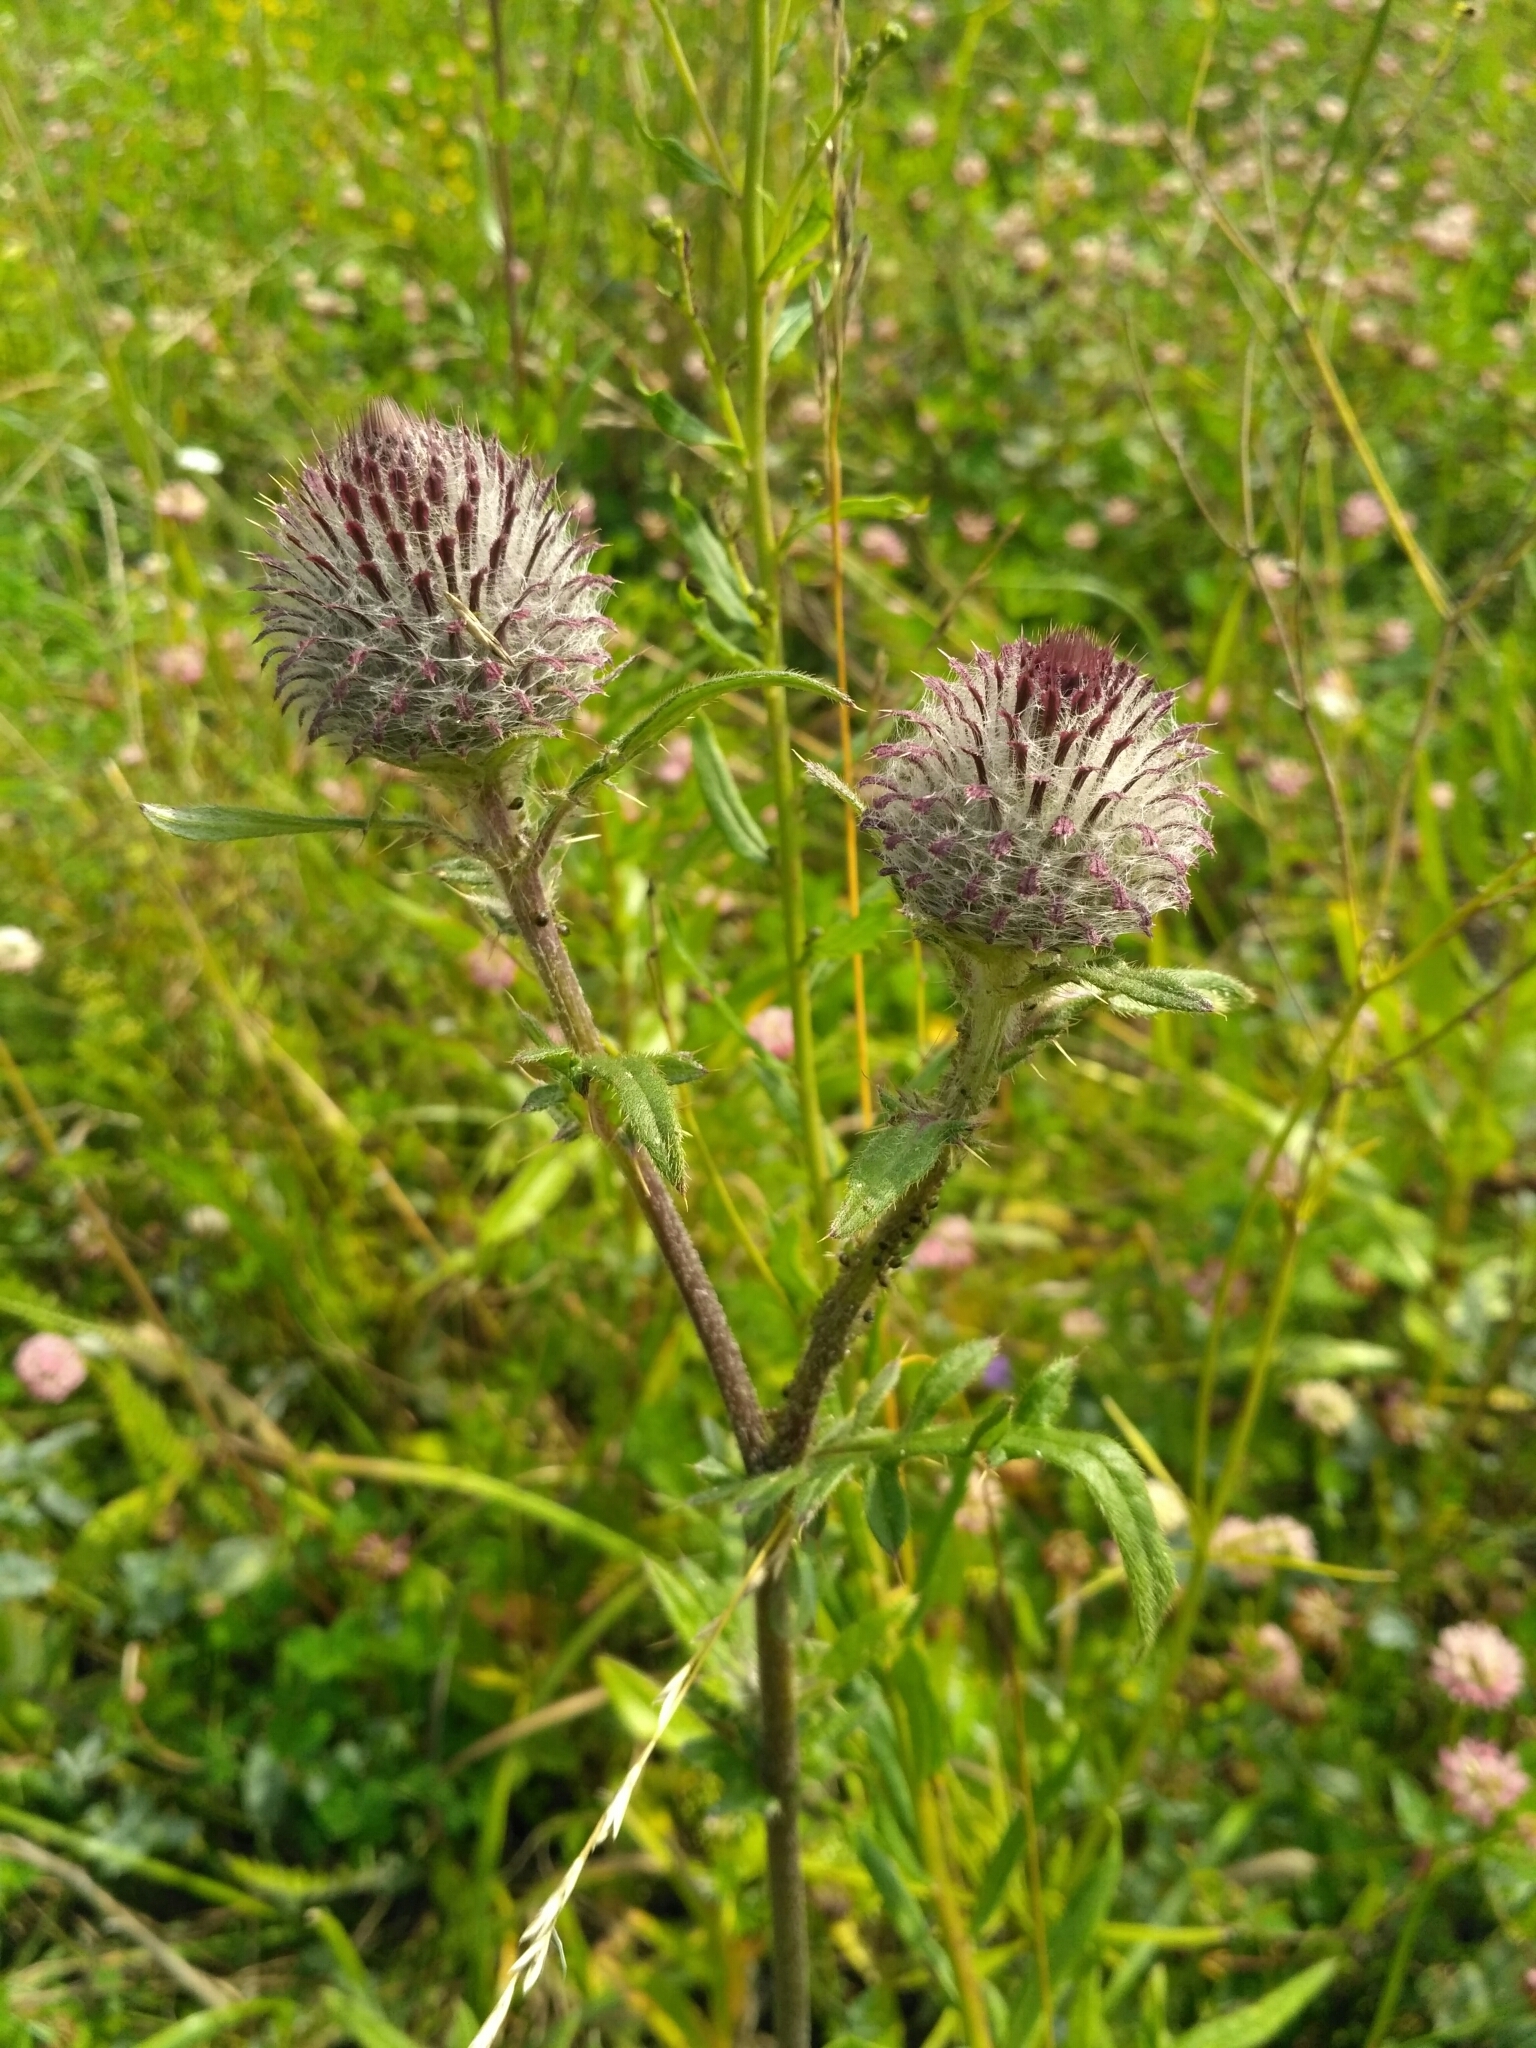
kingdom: Plantae
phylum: Tracheophyta
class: Magnoliopsida
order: Asterales
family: Asteraceae
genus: Lophiolepis
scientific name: Lophiolepis decussata
